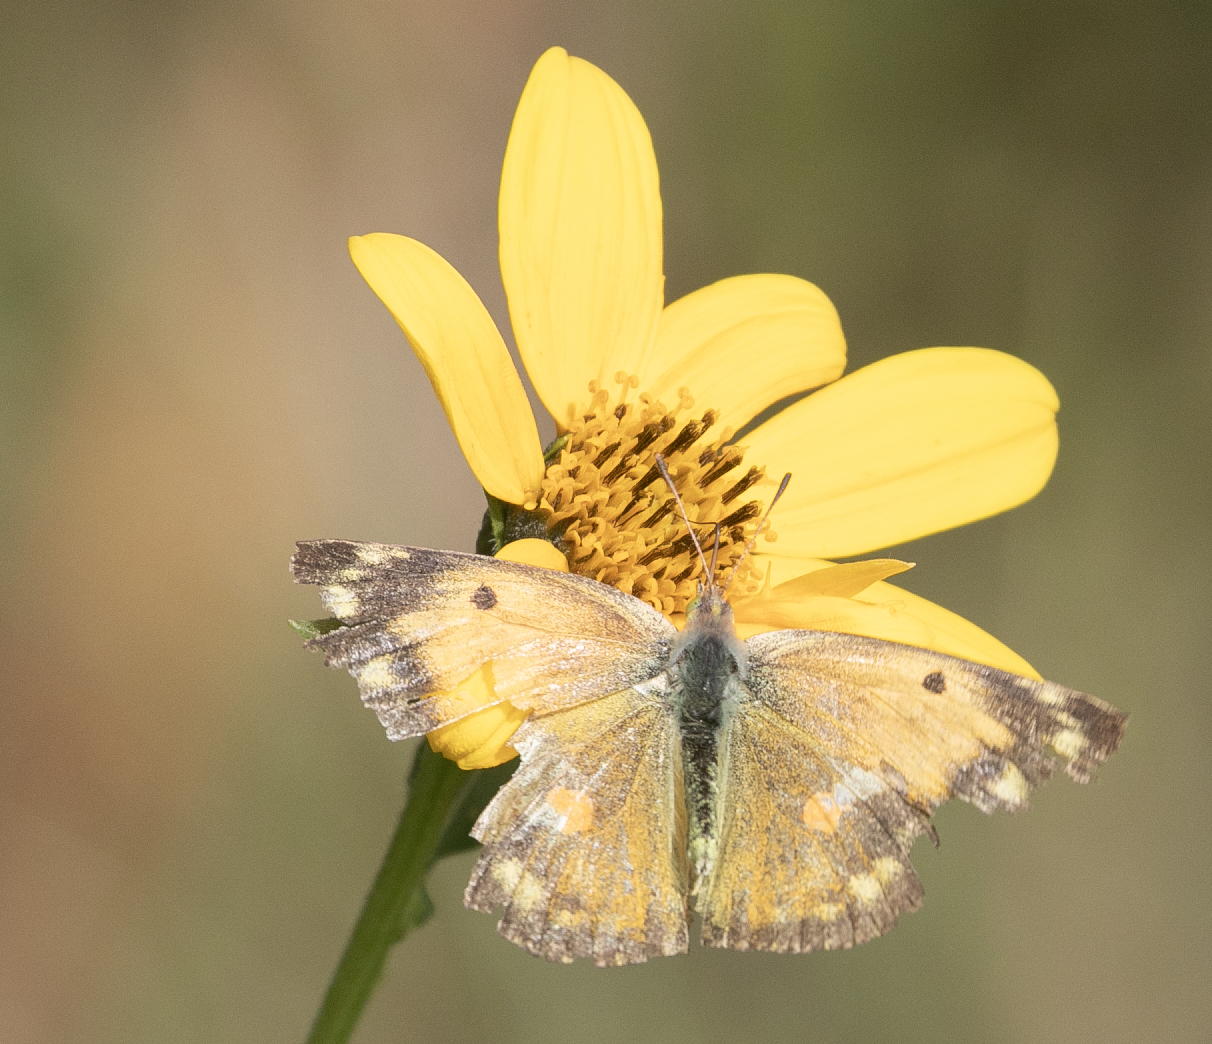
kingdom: Animalia
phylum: Arthropoda
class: Insecta
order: Lepidoptera
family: Pieridae
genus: Colias
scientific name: Colias croceus
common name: Clouded yellow
